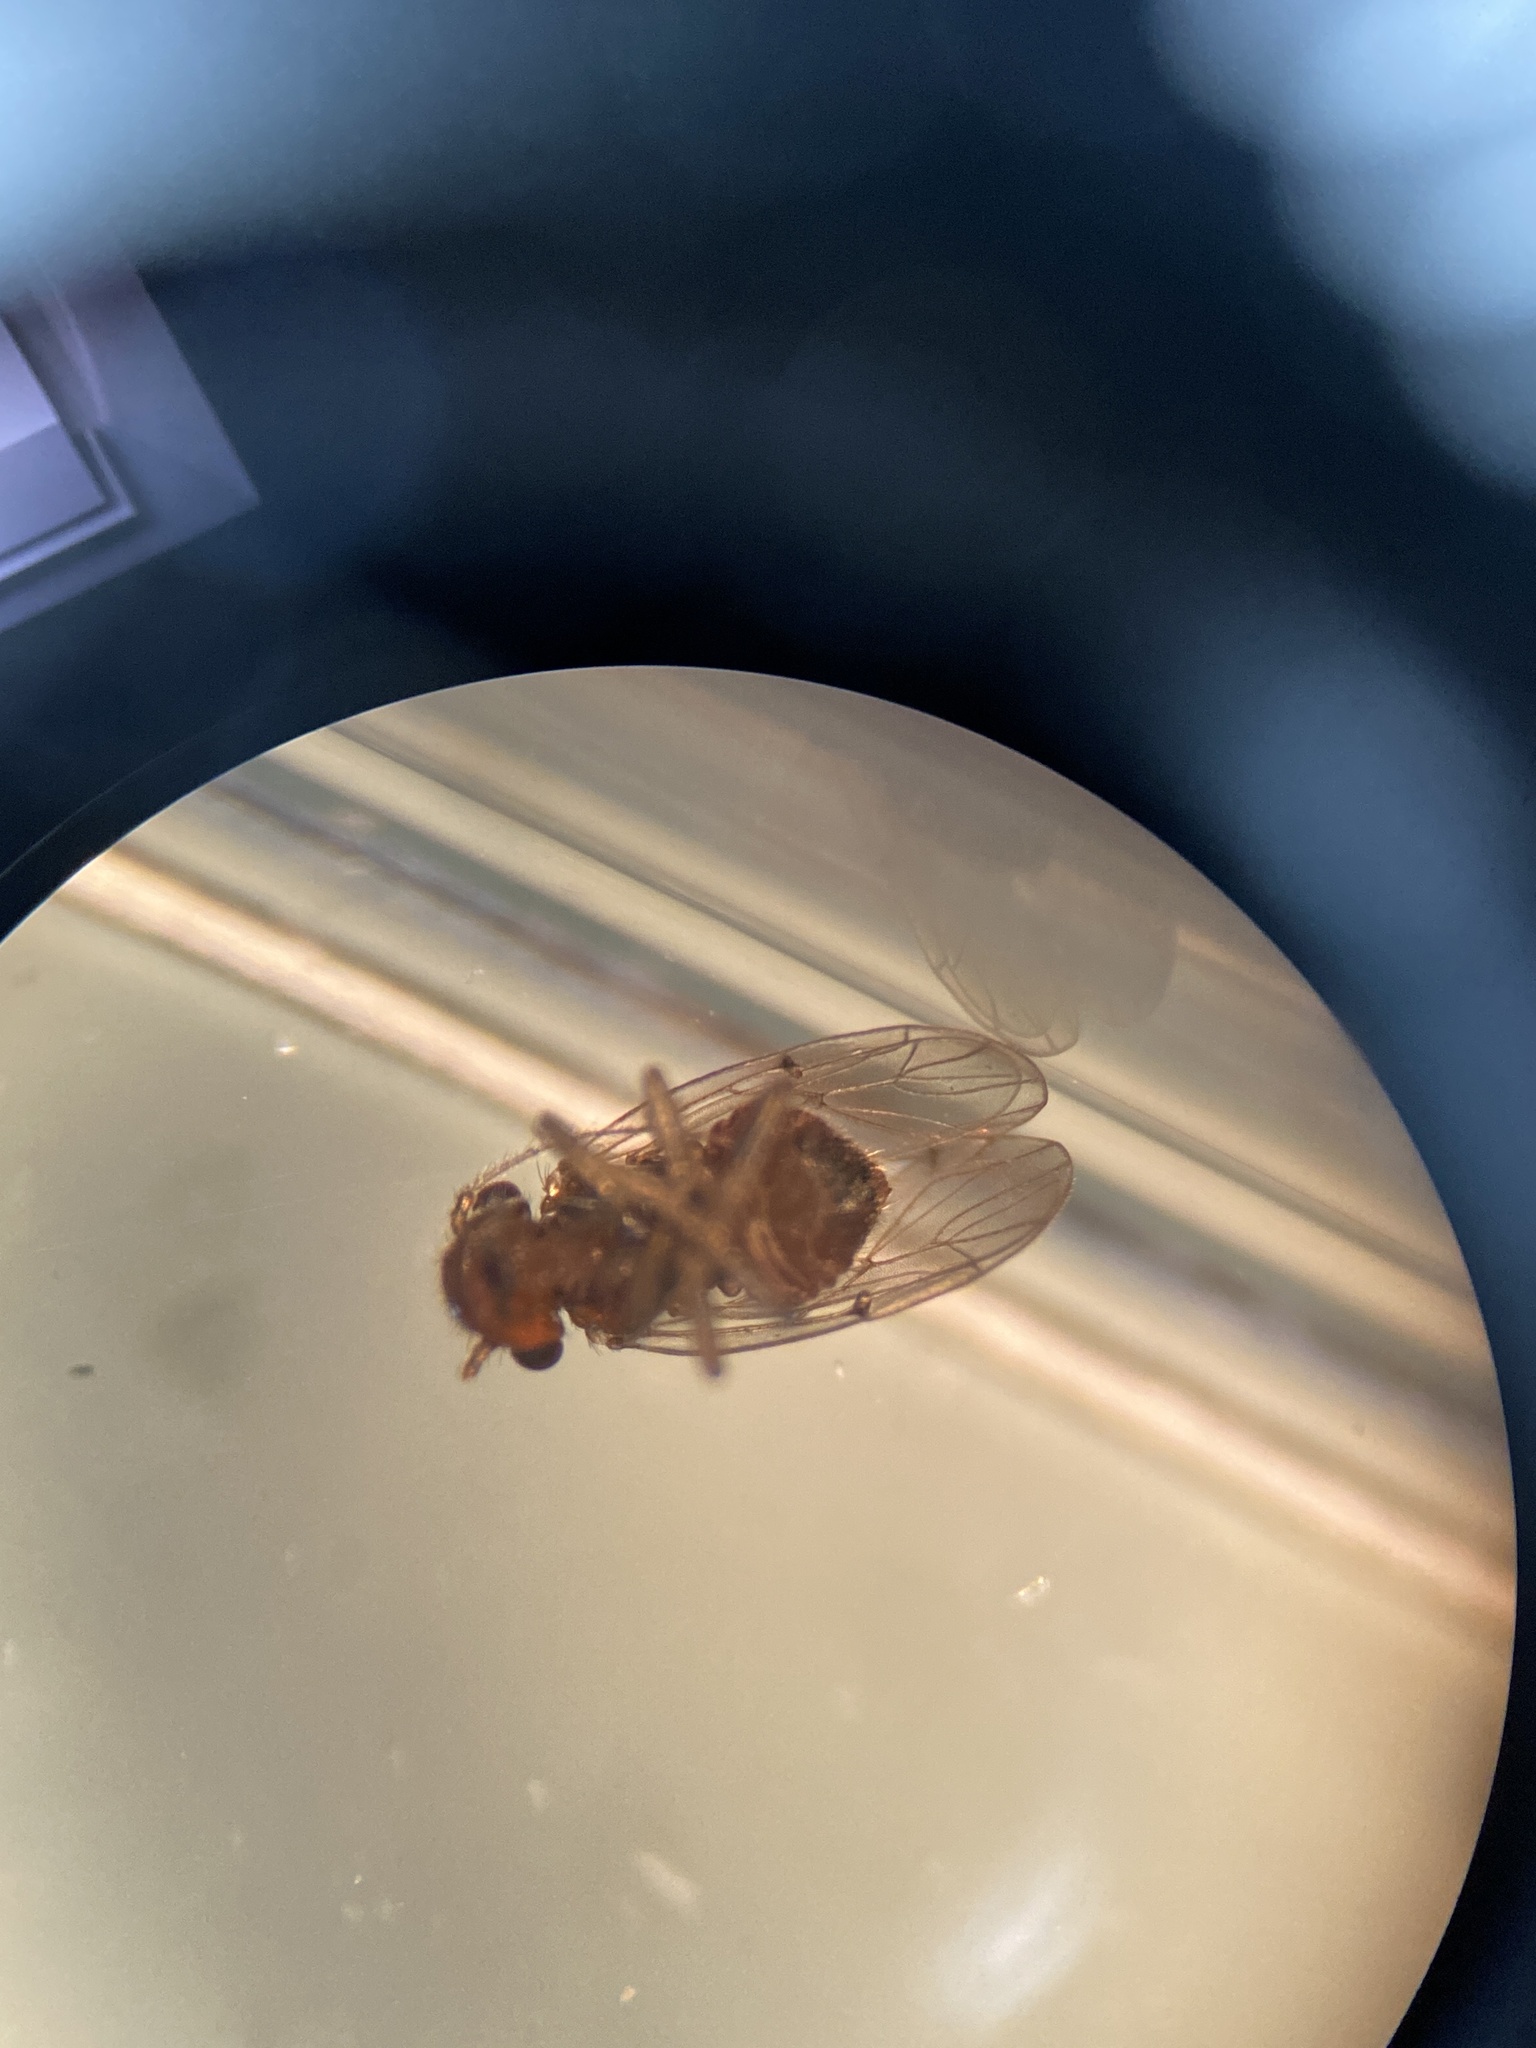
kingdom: Animalia
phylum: Arthropoda
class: Insecta
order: Psocodea
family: Ectopsocidae
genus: Ectopsocopsis
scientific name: Ectopsocopsis cryptomeriae
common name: Large-winged psocid
